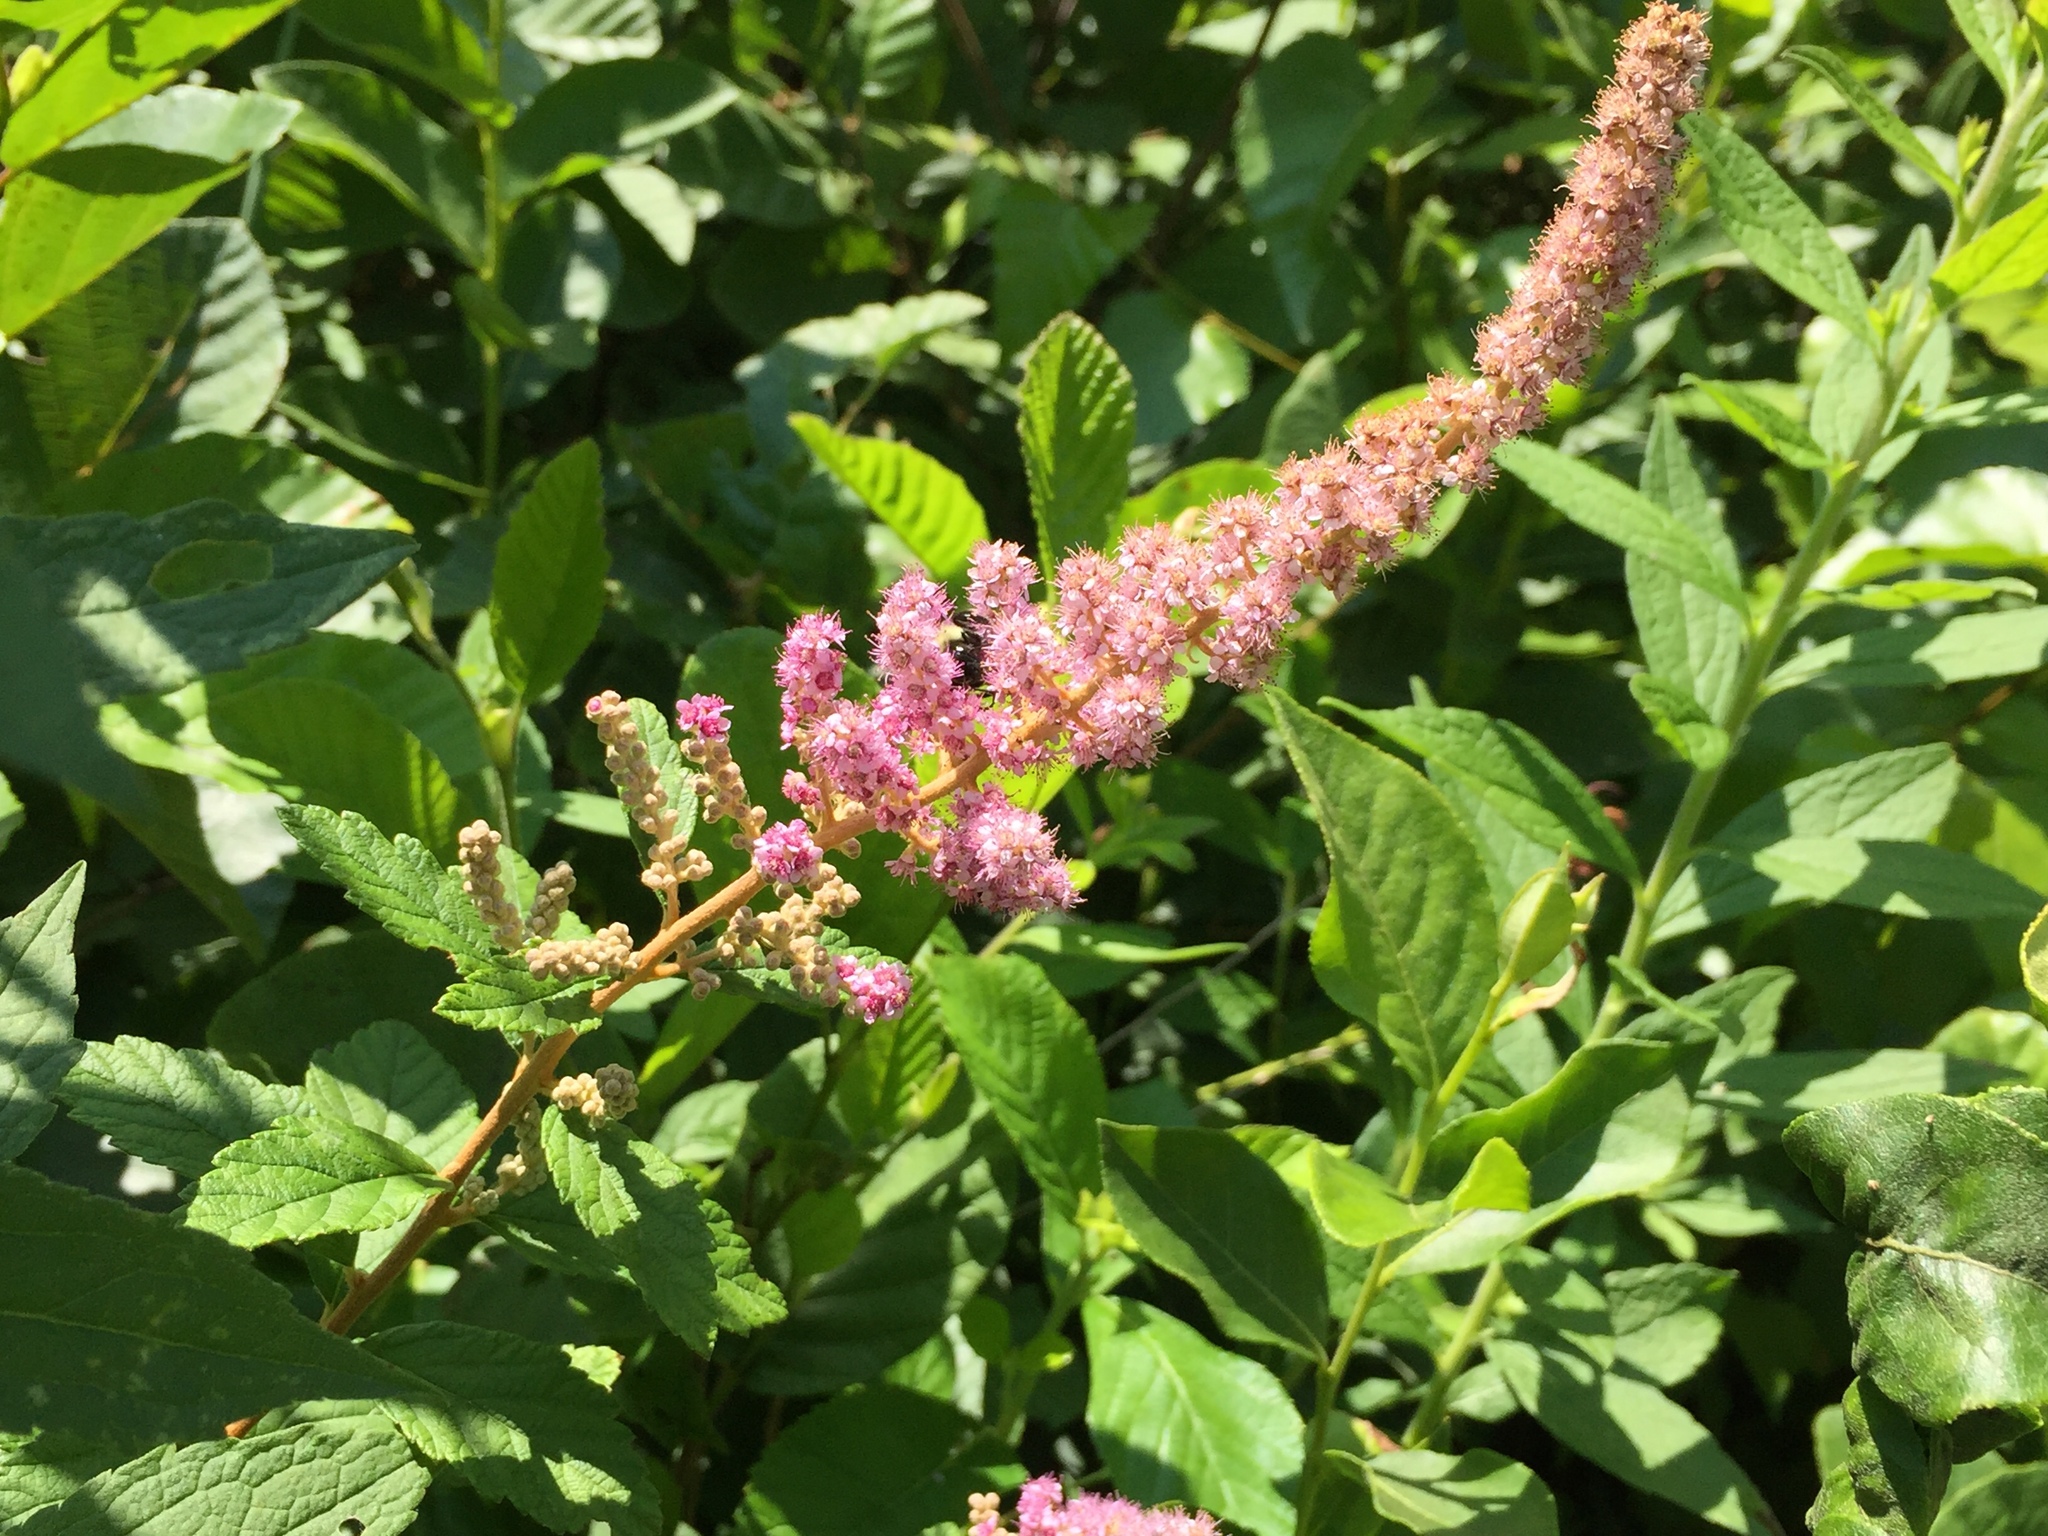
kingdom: Plantae
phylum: Tracheophyta
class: Magnoliopsida
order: Rosales
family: Rosaceae
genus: Spiraea
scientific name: Spiraea tomentosa
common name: Hardhack
